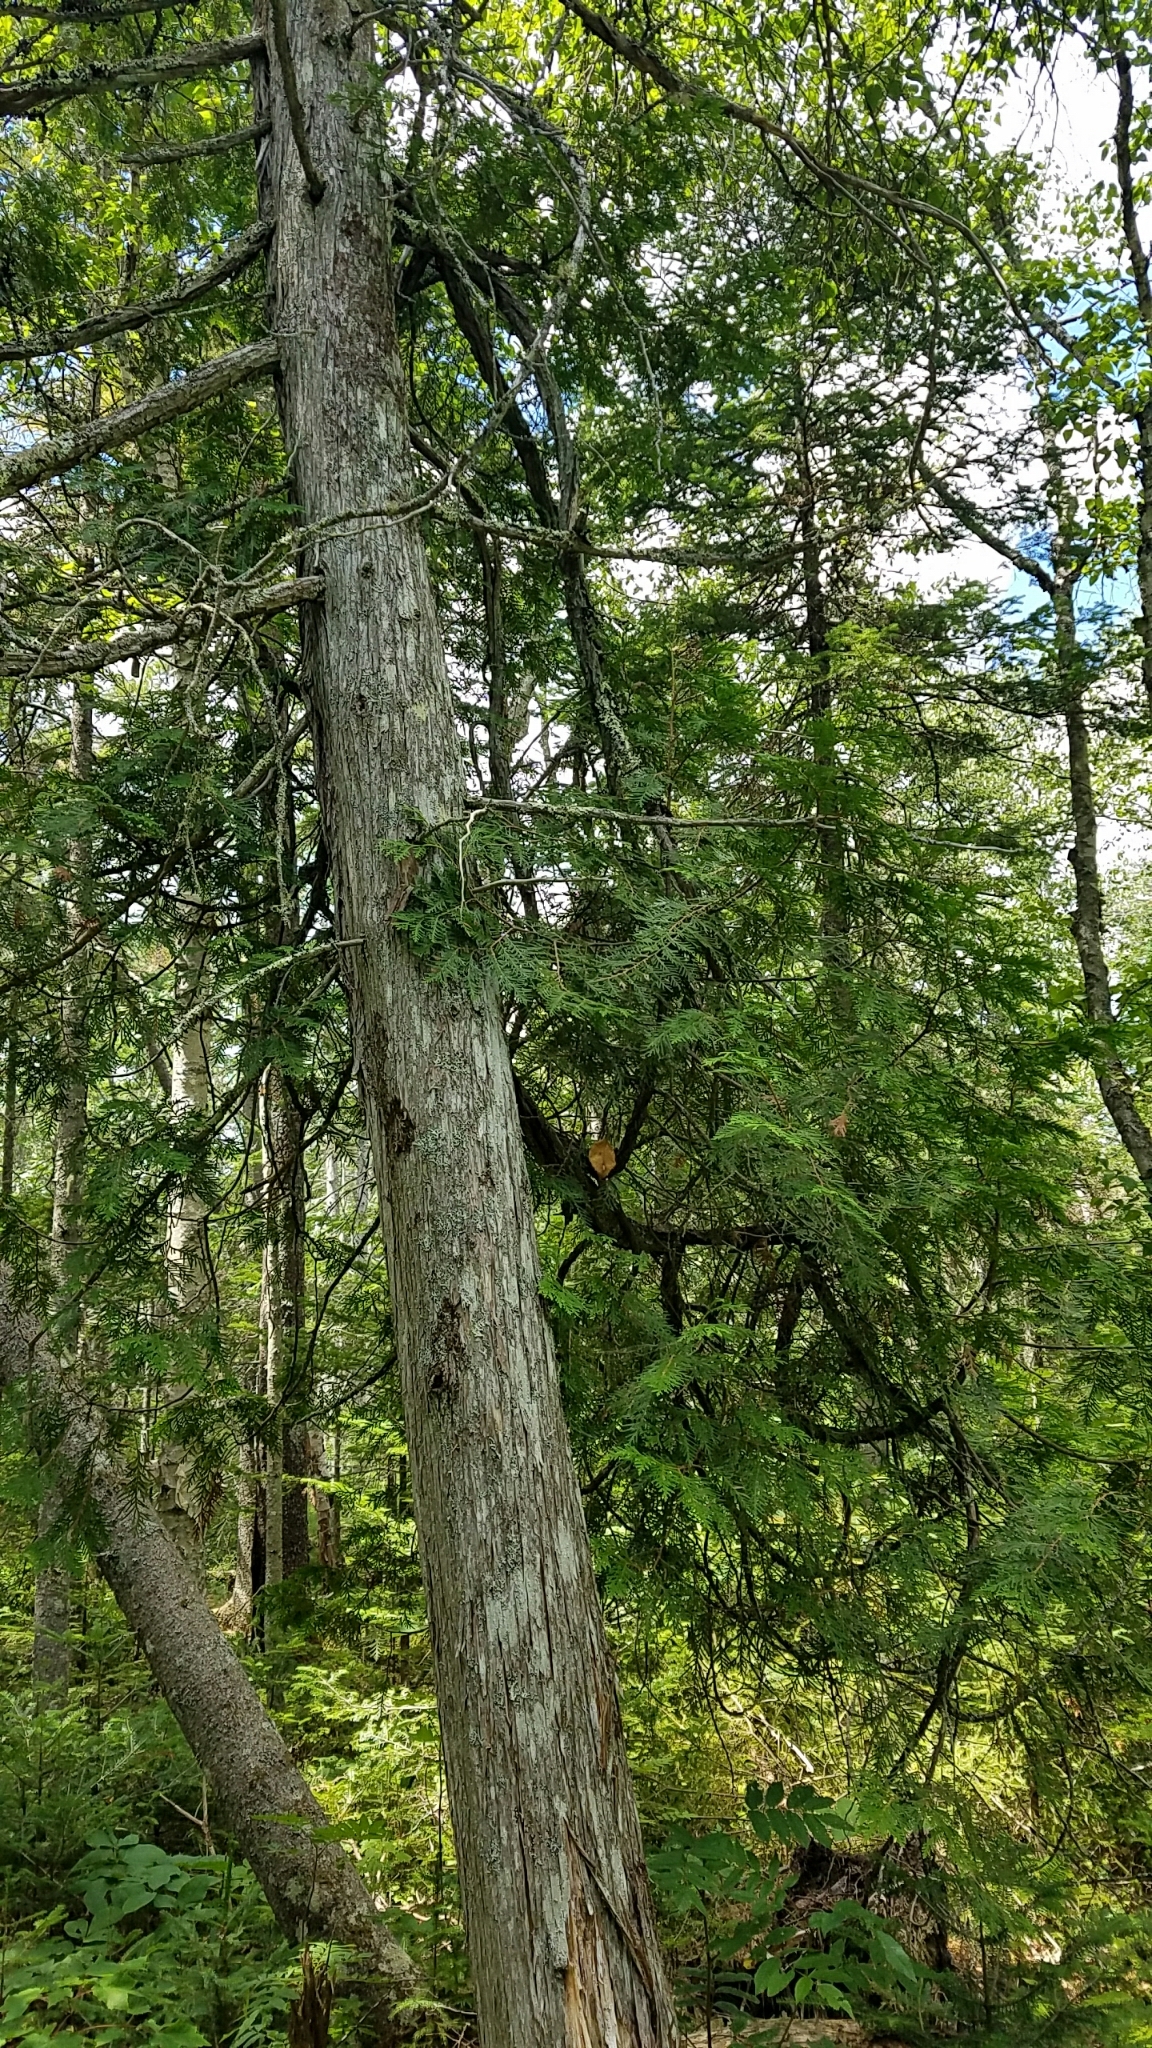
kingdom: Plantae
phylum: Tracheophyta
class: Pinopsida
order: Pinales
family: Cupressaceae
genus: Thuja
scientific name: Thuja occidentalis
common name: Northern white-cedar
